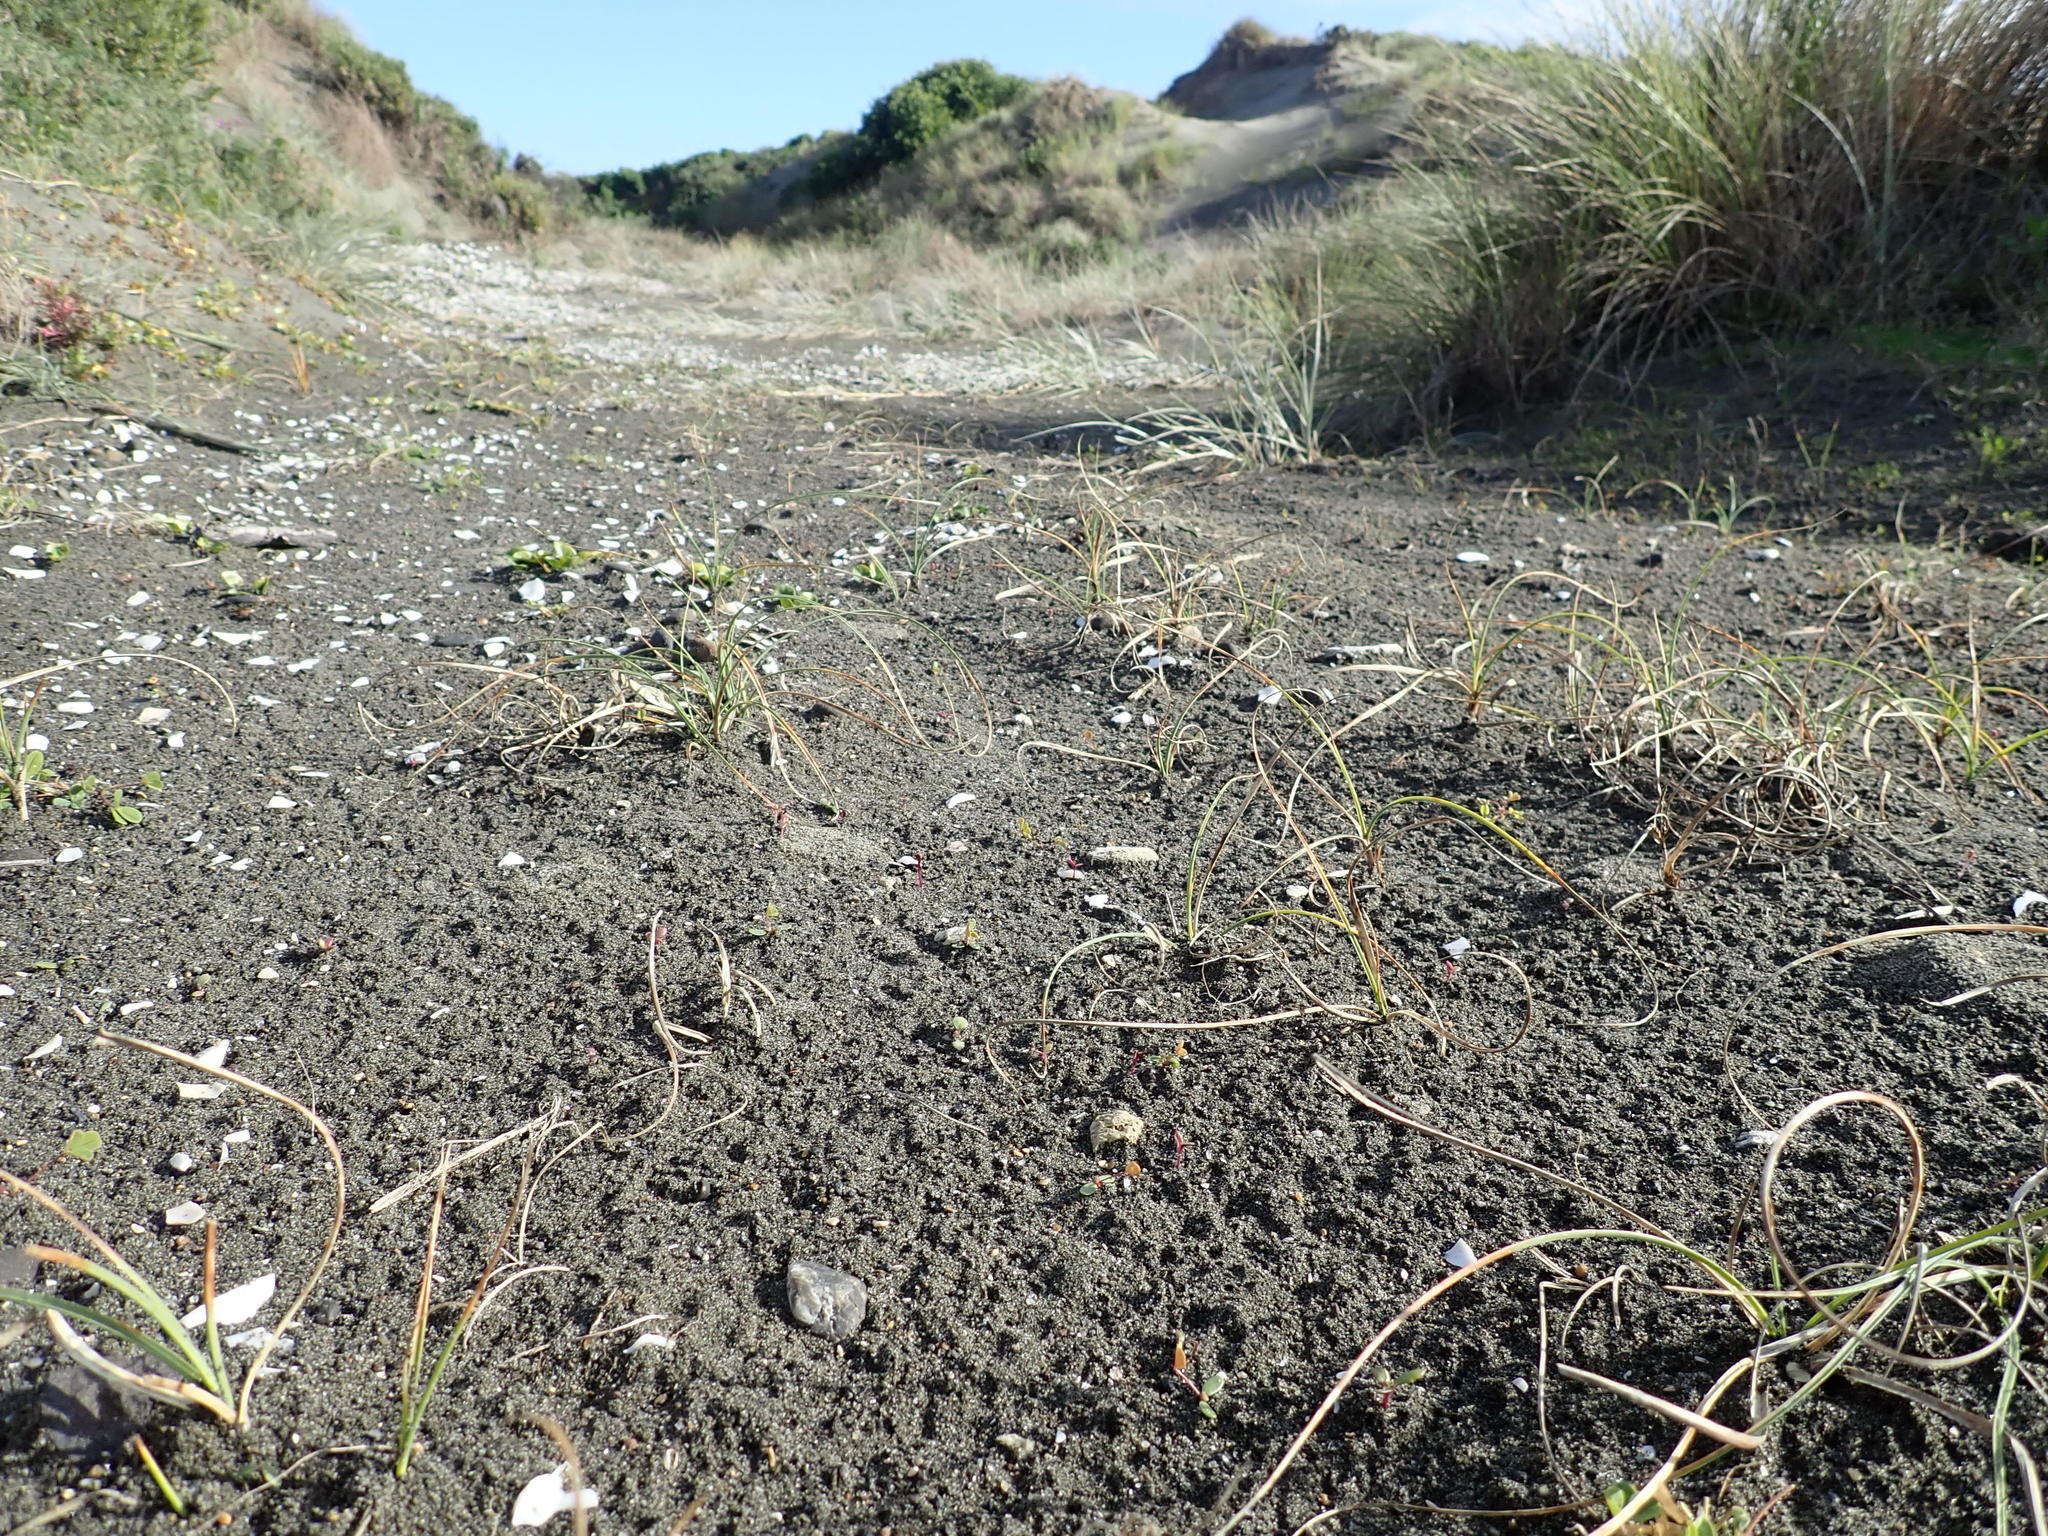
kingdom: Plantae
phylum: Tracheophyta
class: Liliopsida
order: Poales
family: Cyperaceae
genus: Carex
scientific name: Carex pumila
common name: Dwarf sedge
